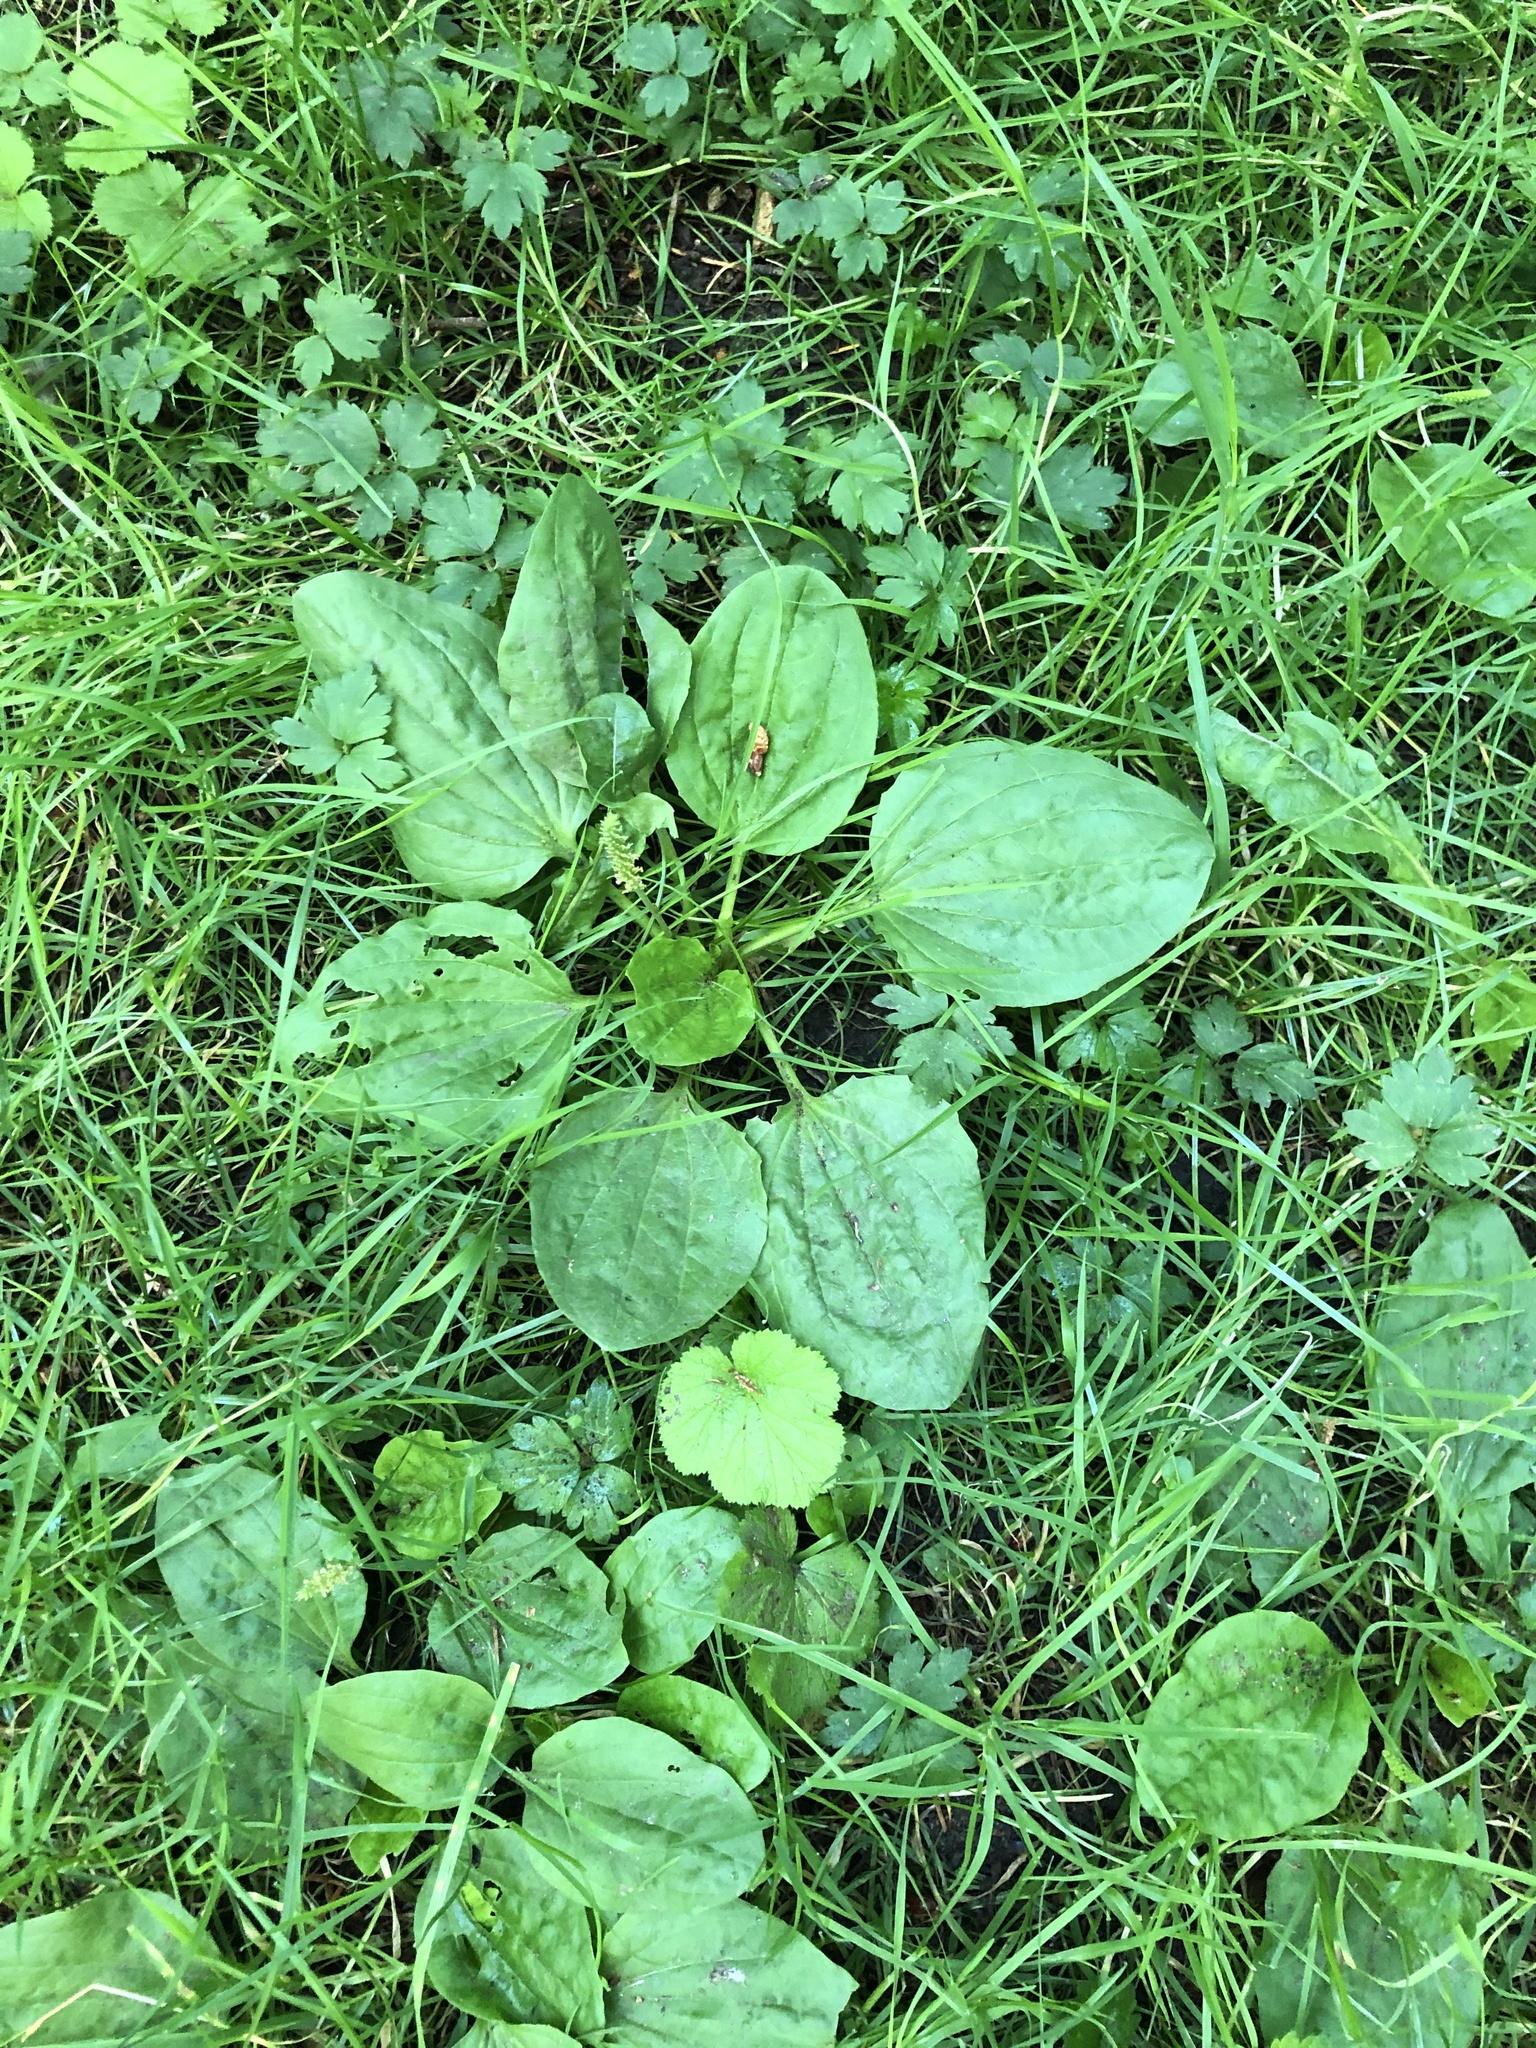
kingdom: Plantae
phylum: Tracheophyta
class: Magnoliopsida
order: Lamiales
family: Plantaginaceae
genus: Plantago
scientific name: Plantago major
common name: Common plantain
